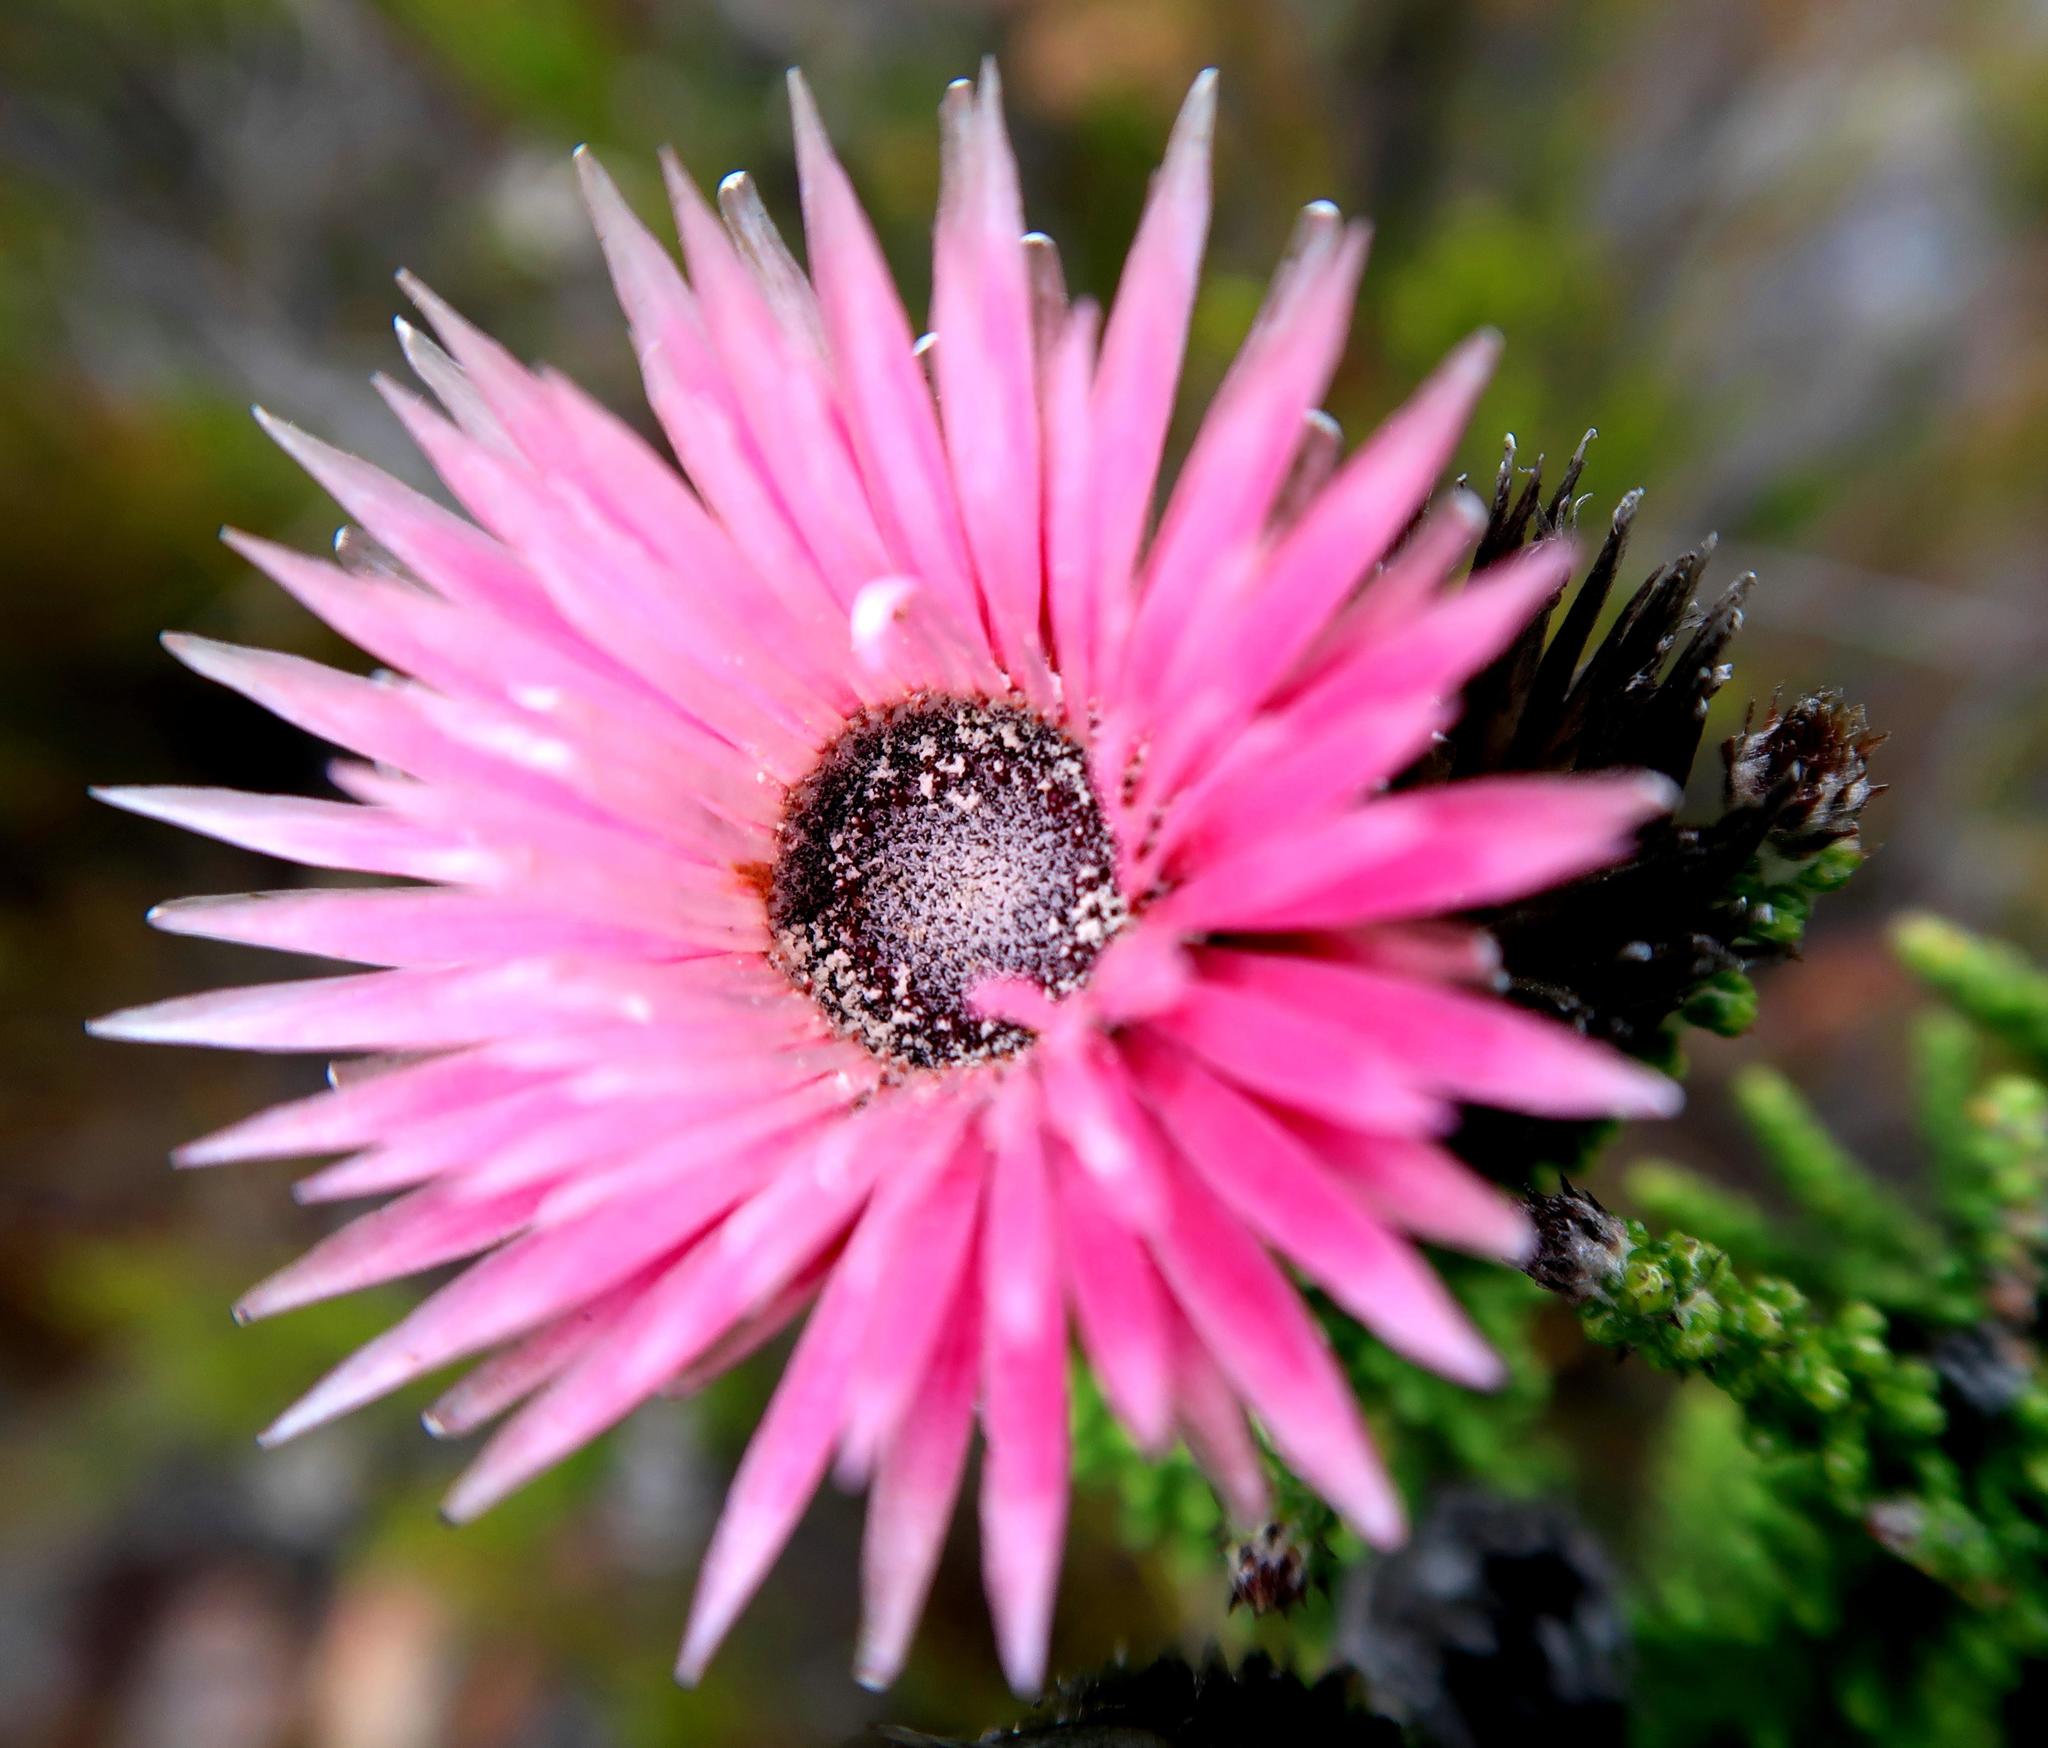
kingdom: Plantae
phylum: Tracheophyta
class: Magnoliopsida
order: Asterales
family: Asteraceae
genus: Phaenocoma
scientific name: Phaenocoma prolifera
